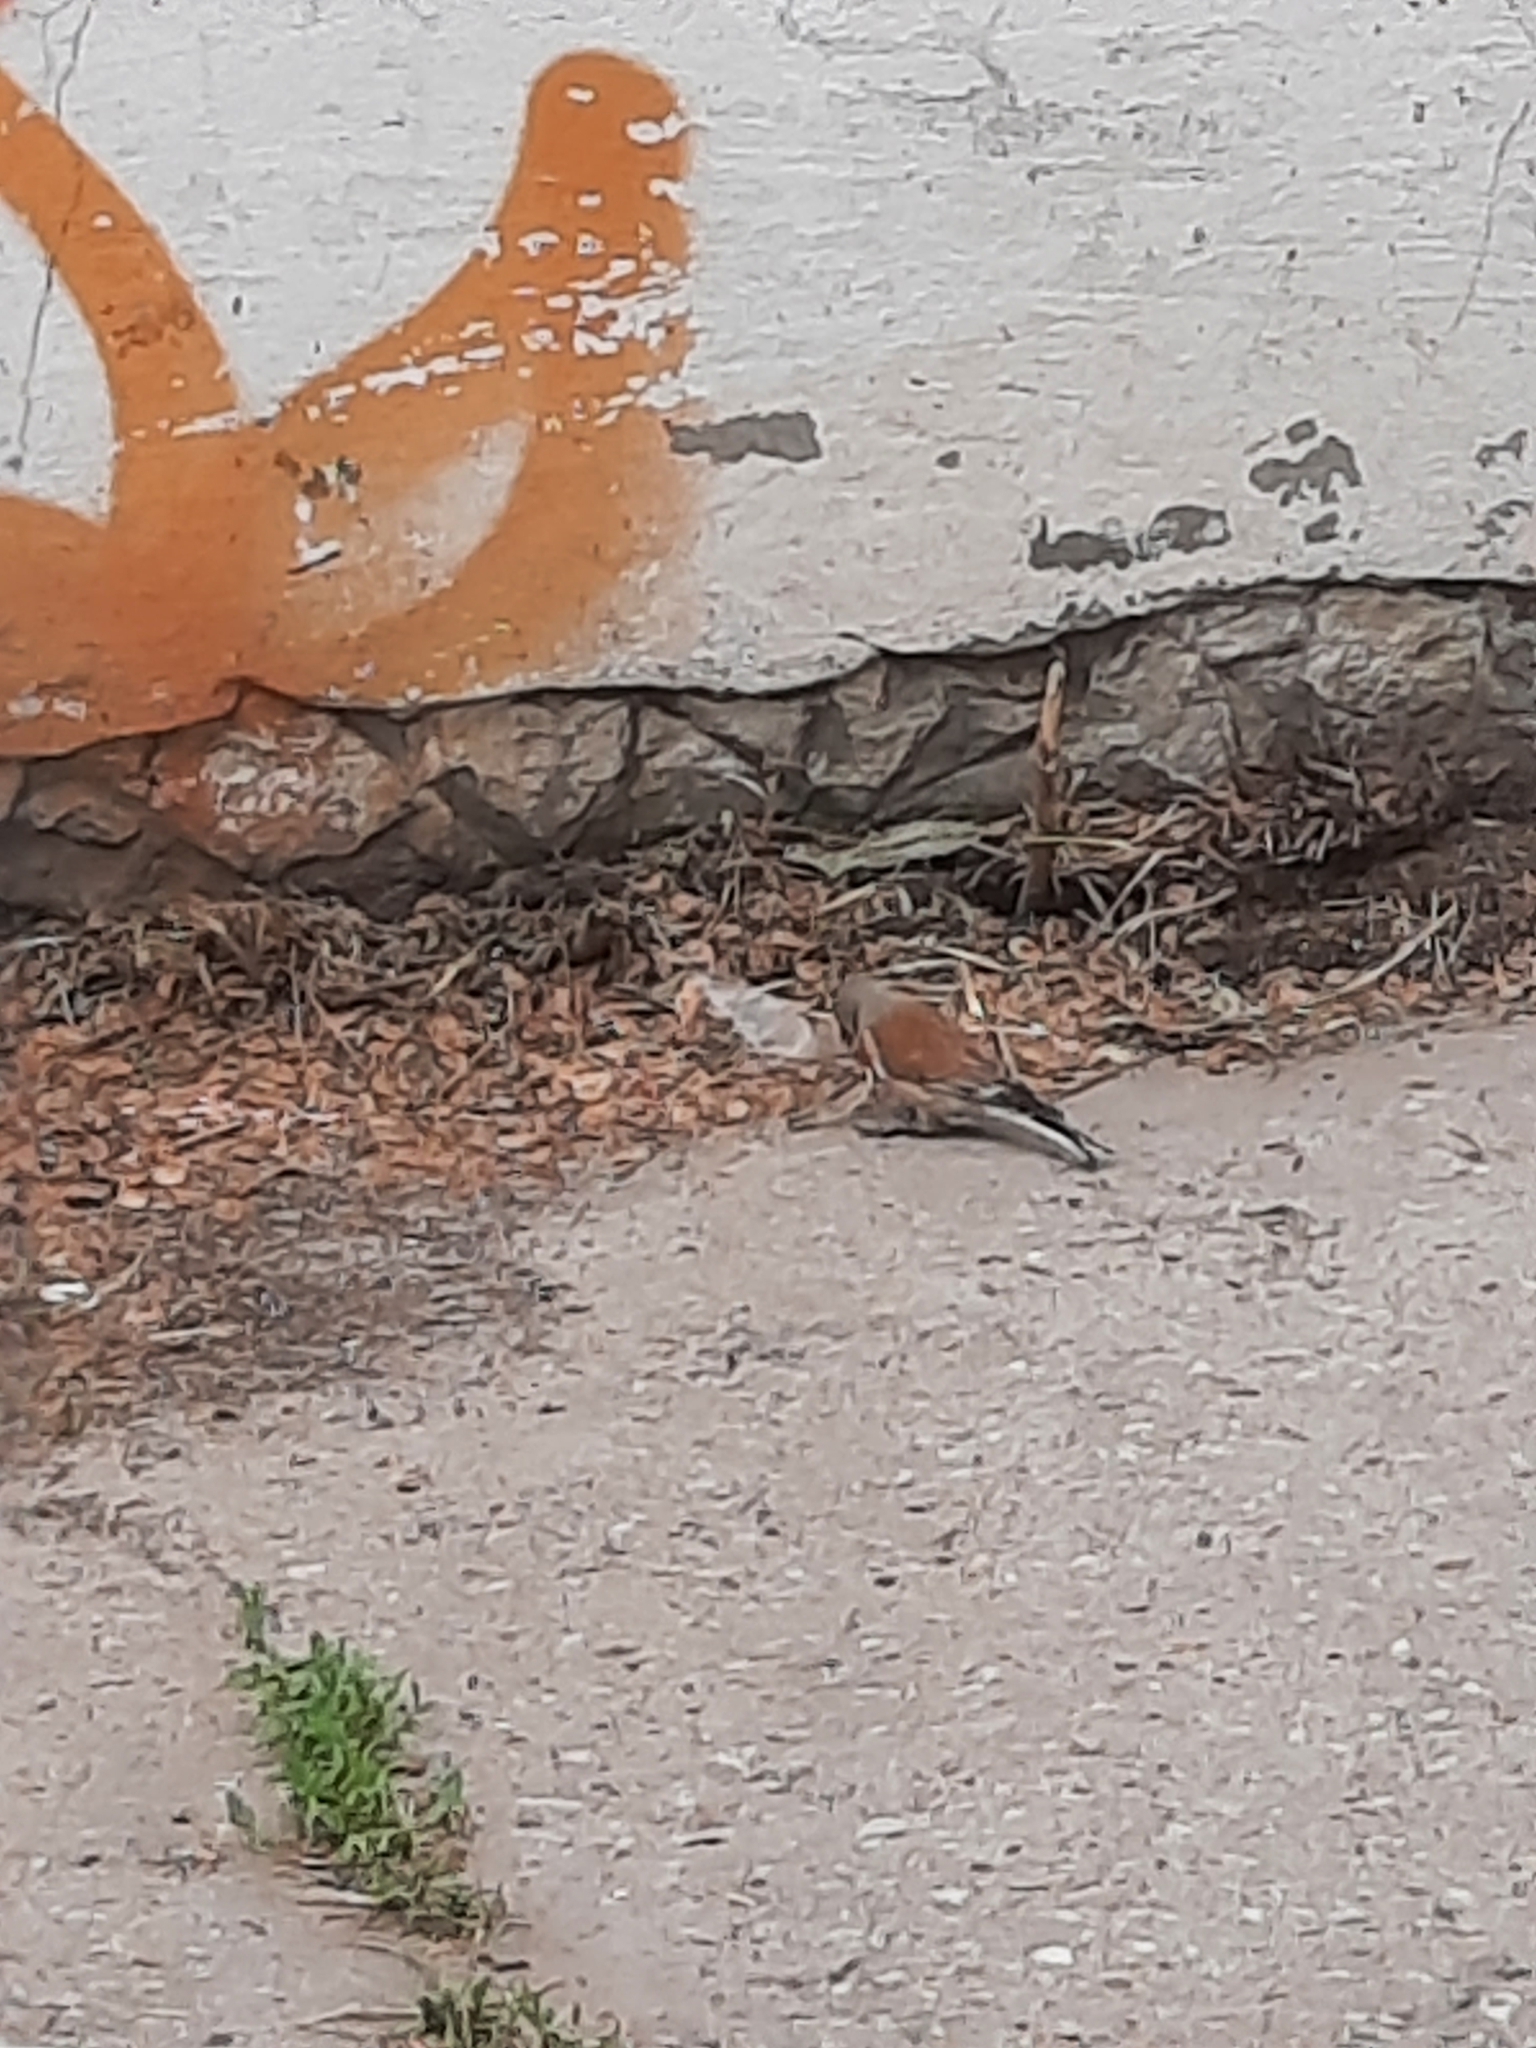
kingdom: Animalia
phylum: Chordata
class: Aves
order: Passeriformes
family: Fringillidae
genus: Linaria
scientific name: Linaria cannabina
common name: Common linnet
